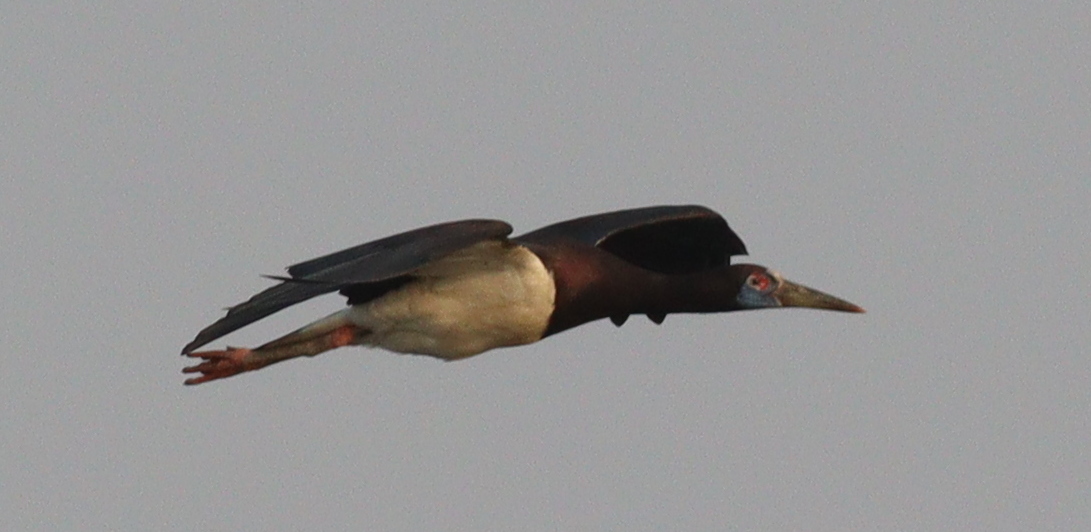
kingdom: Animalia
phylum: Chordata
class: Aves
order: Ciconiiformes
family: Ciconiidae
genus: Ciconia
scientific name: Ciconia abdimii
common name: Abdim's stork
